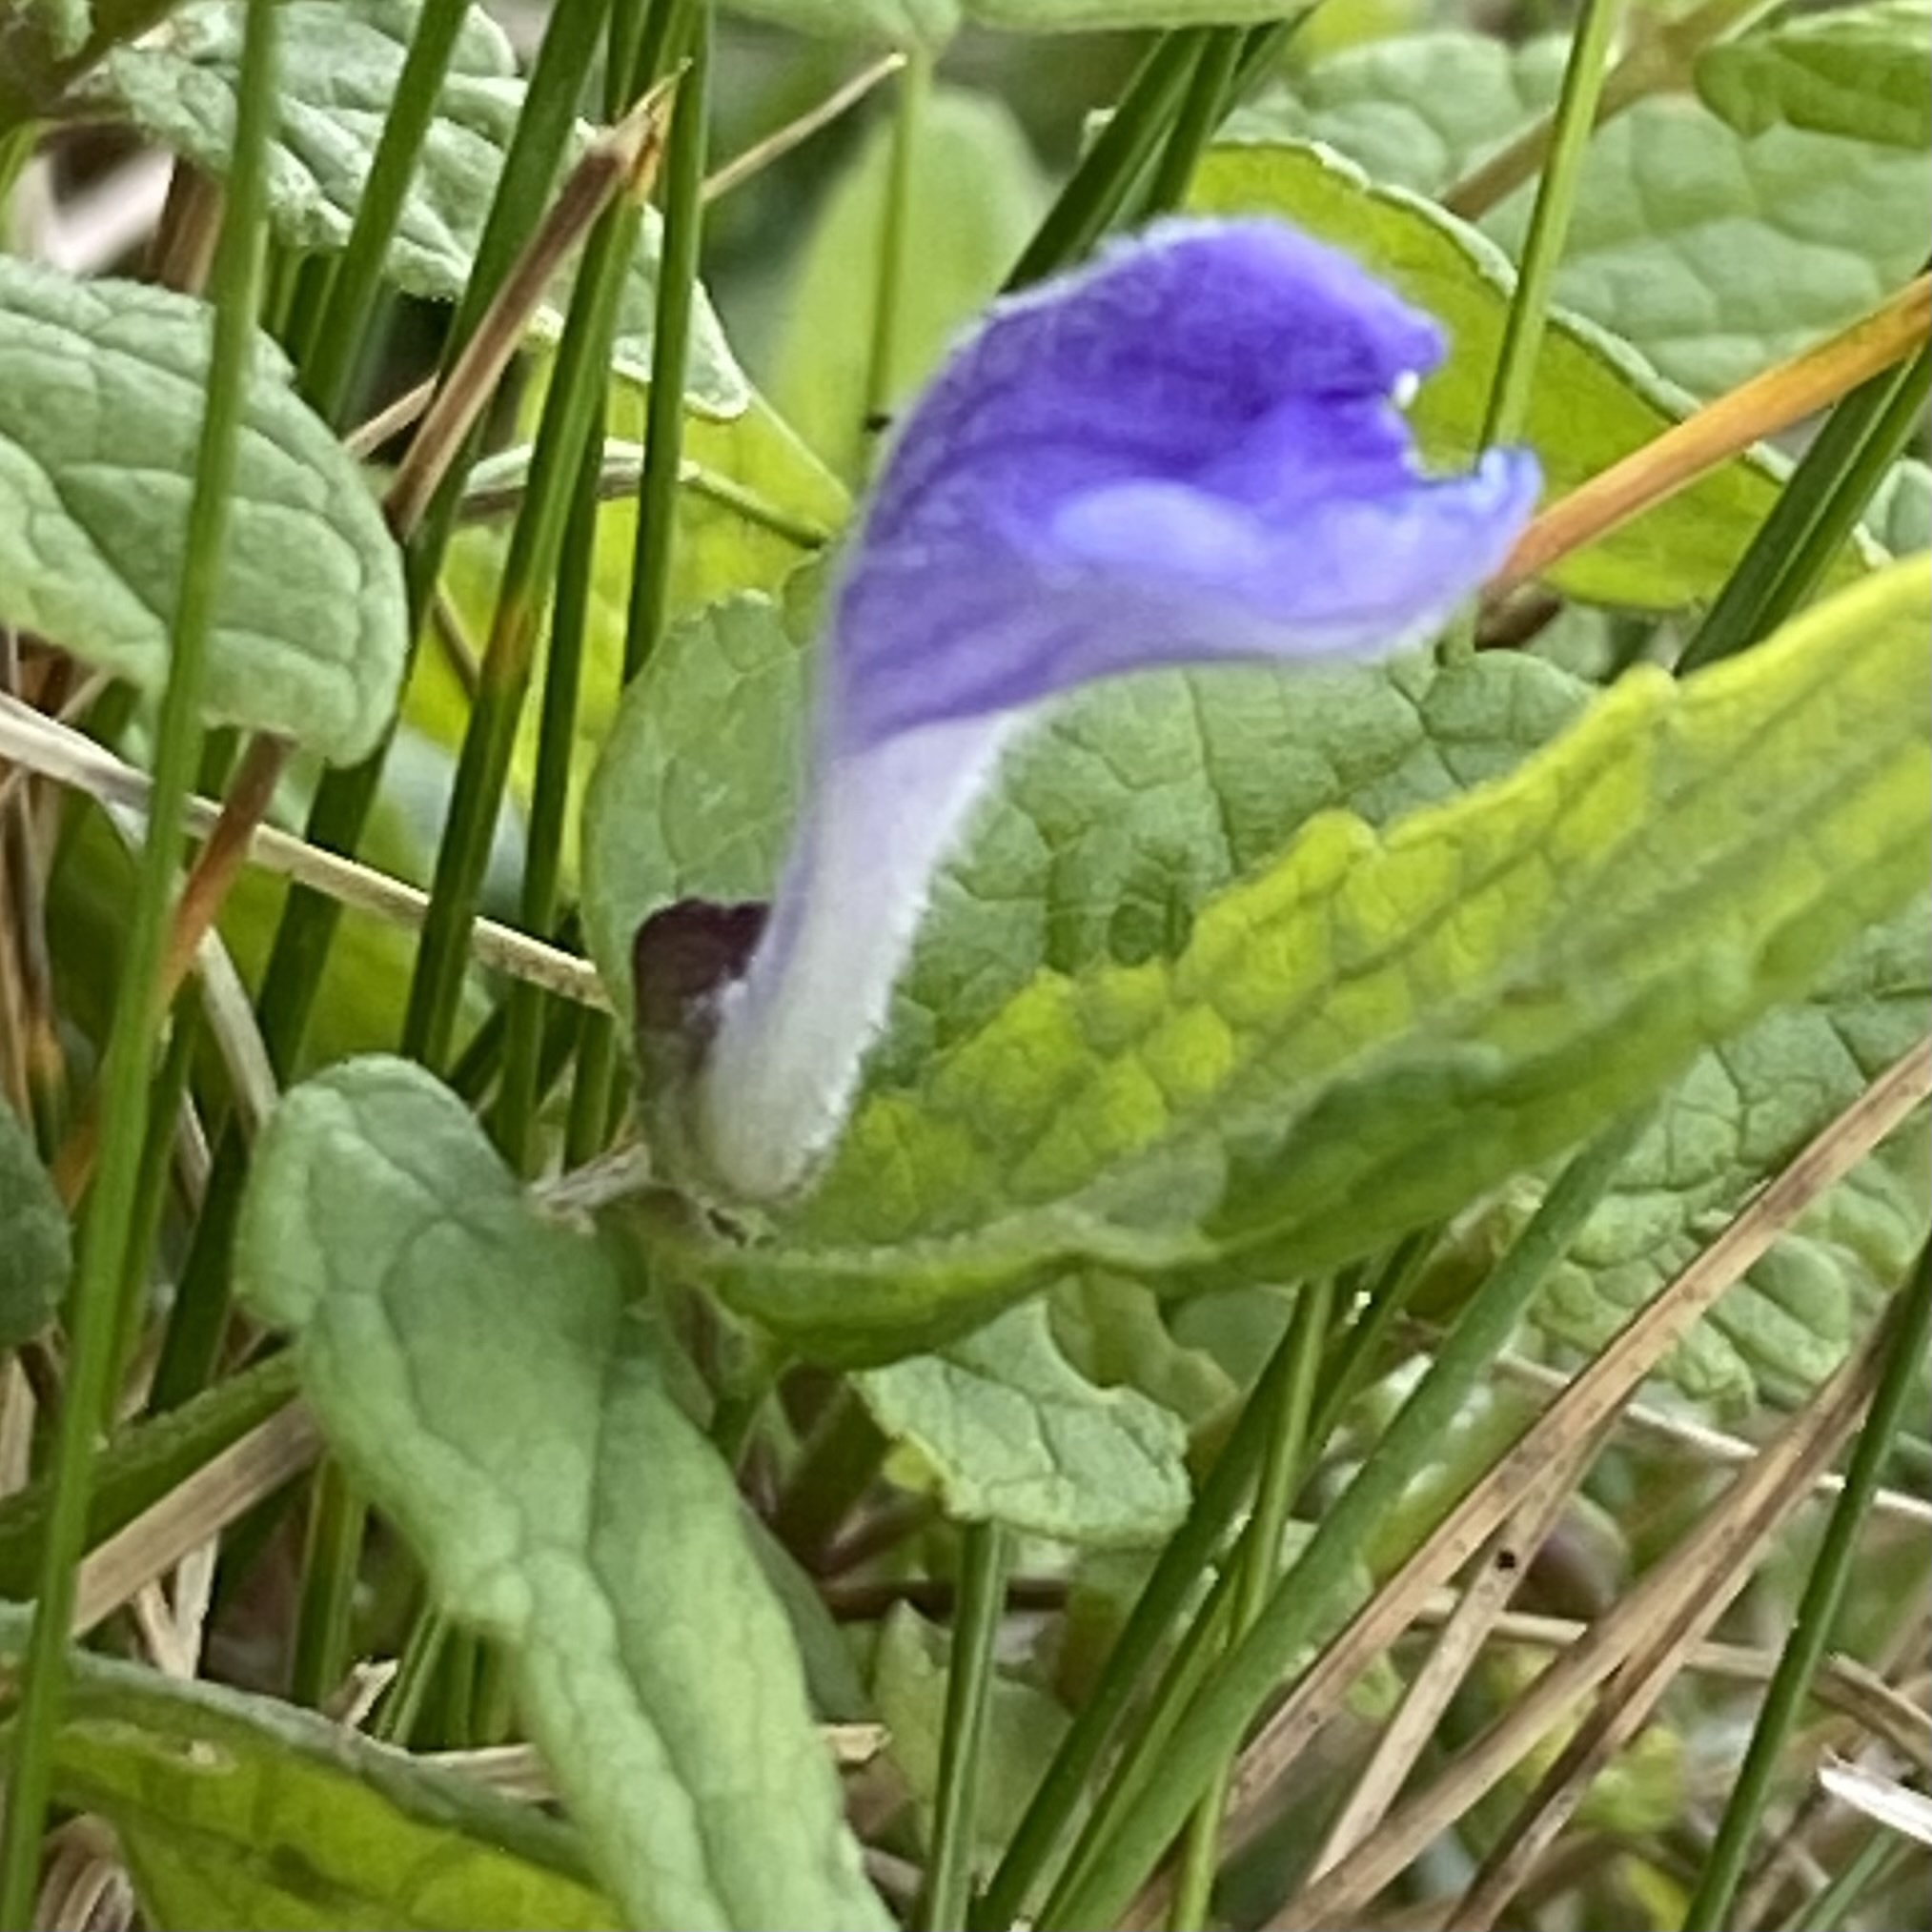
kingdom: Plantae
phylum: Tracheophyta
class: Magnoliopsida
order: Lamiales
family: Lamiaceae
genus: Scutellaria
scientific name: Scutellaria galericulata
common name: Skullcap
